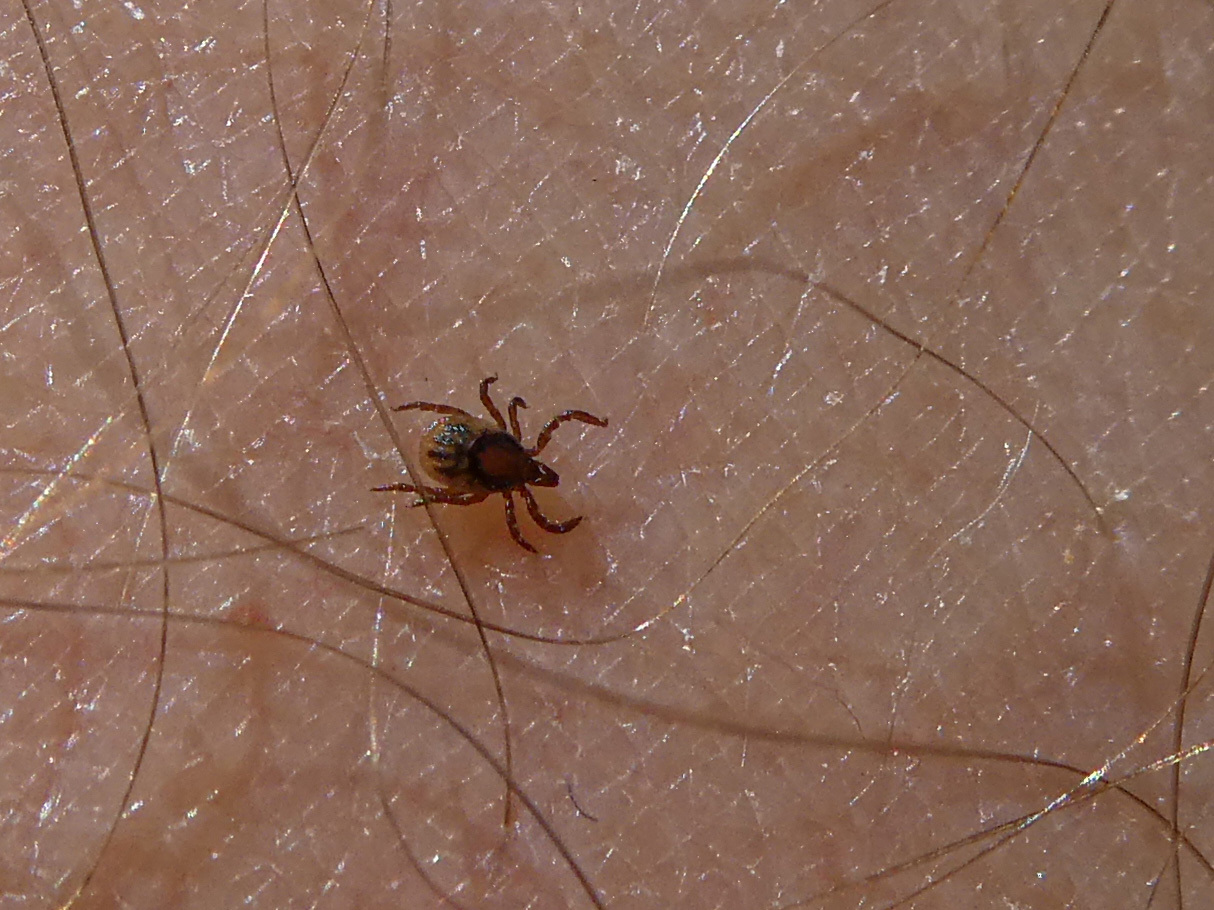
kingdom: Animalia
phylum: Arthropoda
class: Arachnida
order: Ixodida
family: Ixodidae
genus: Ixodes
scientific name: Ixodes ricinus
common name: Castor bean tick
